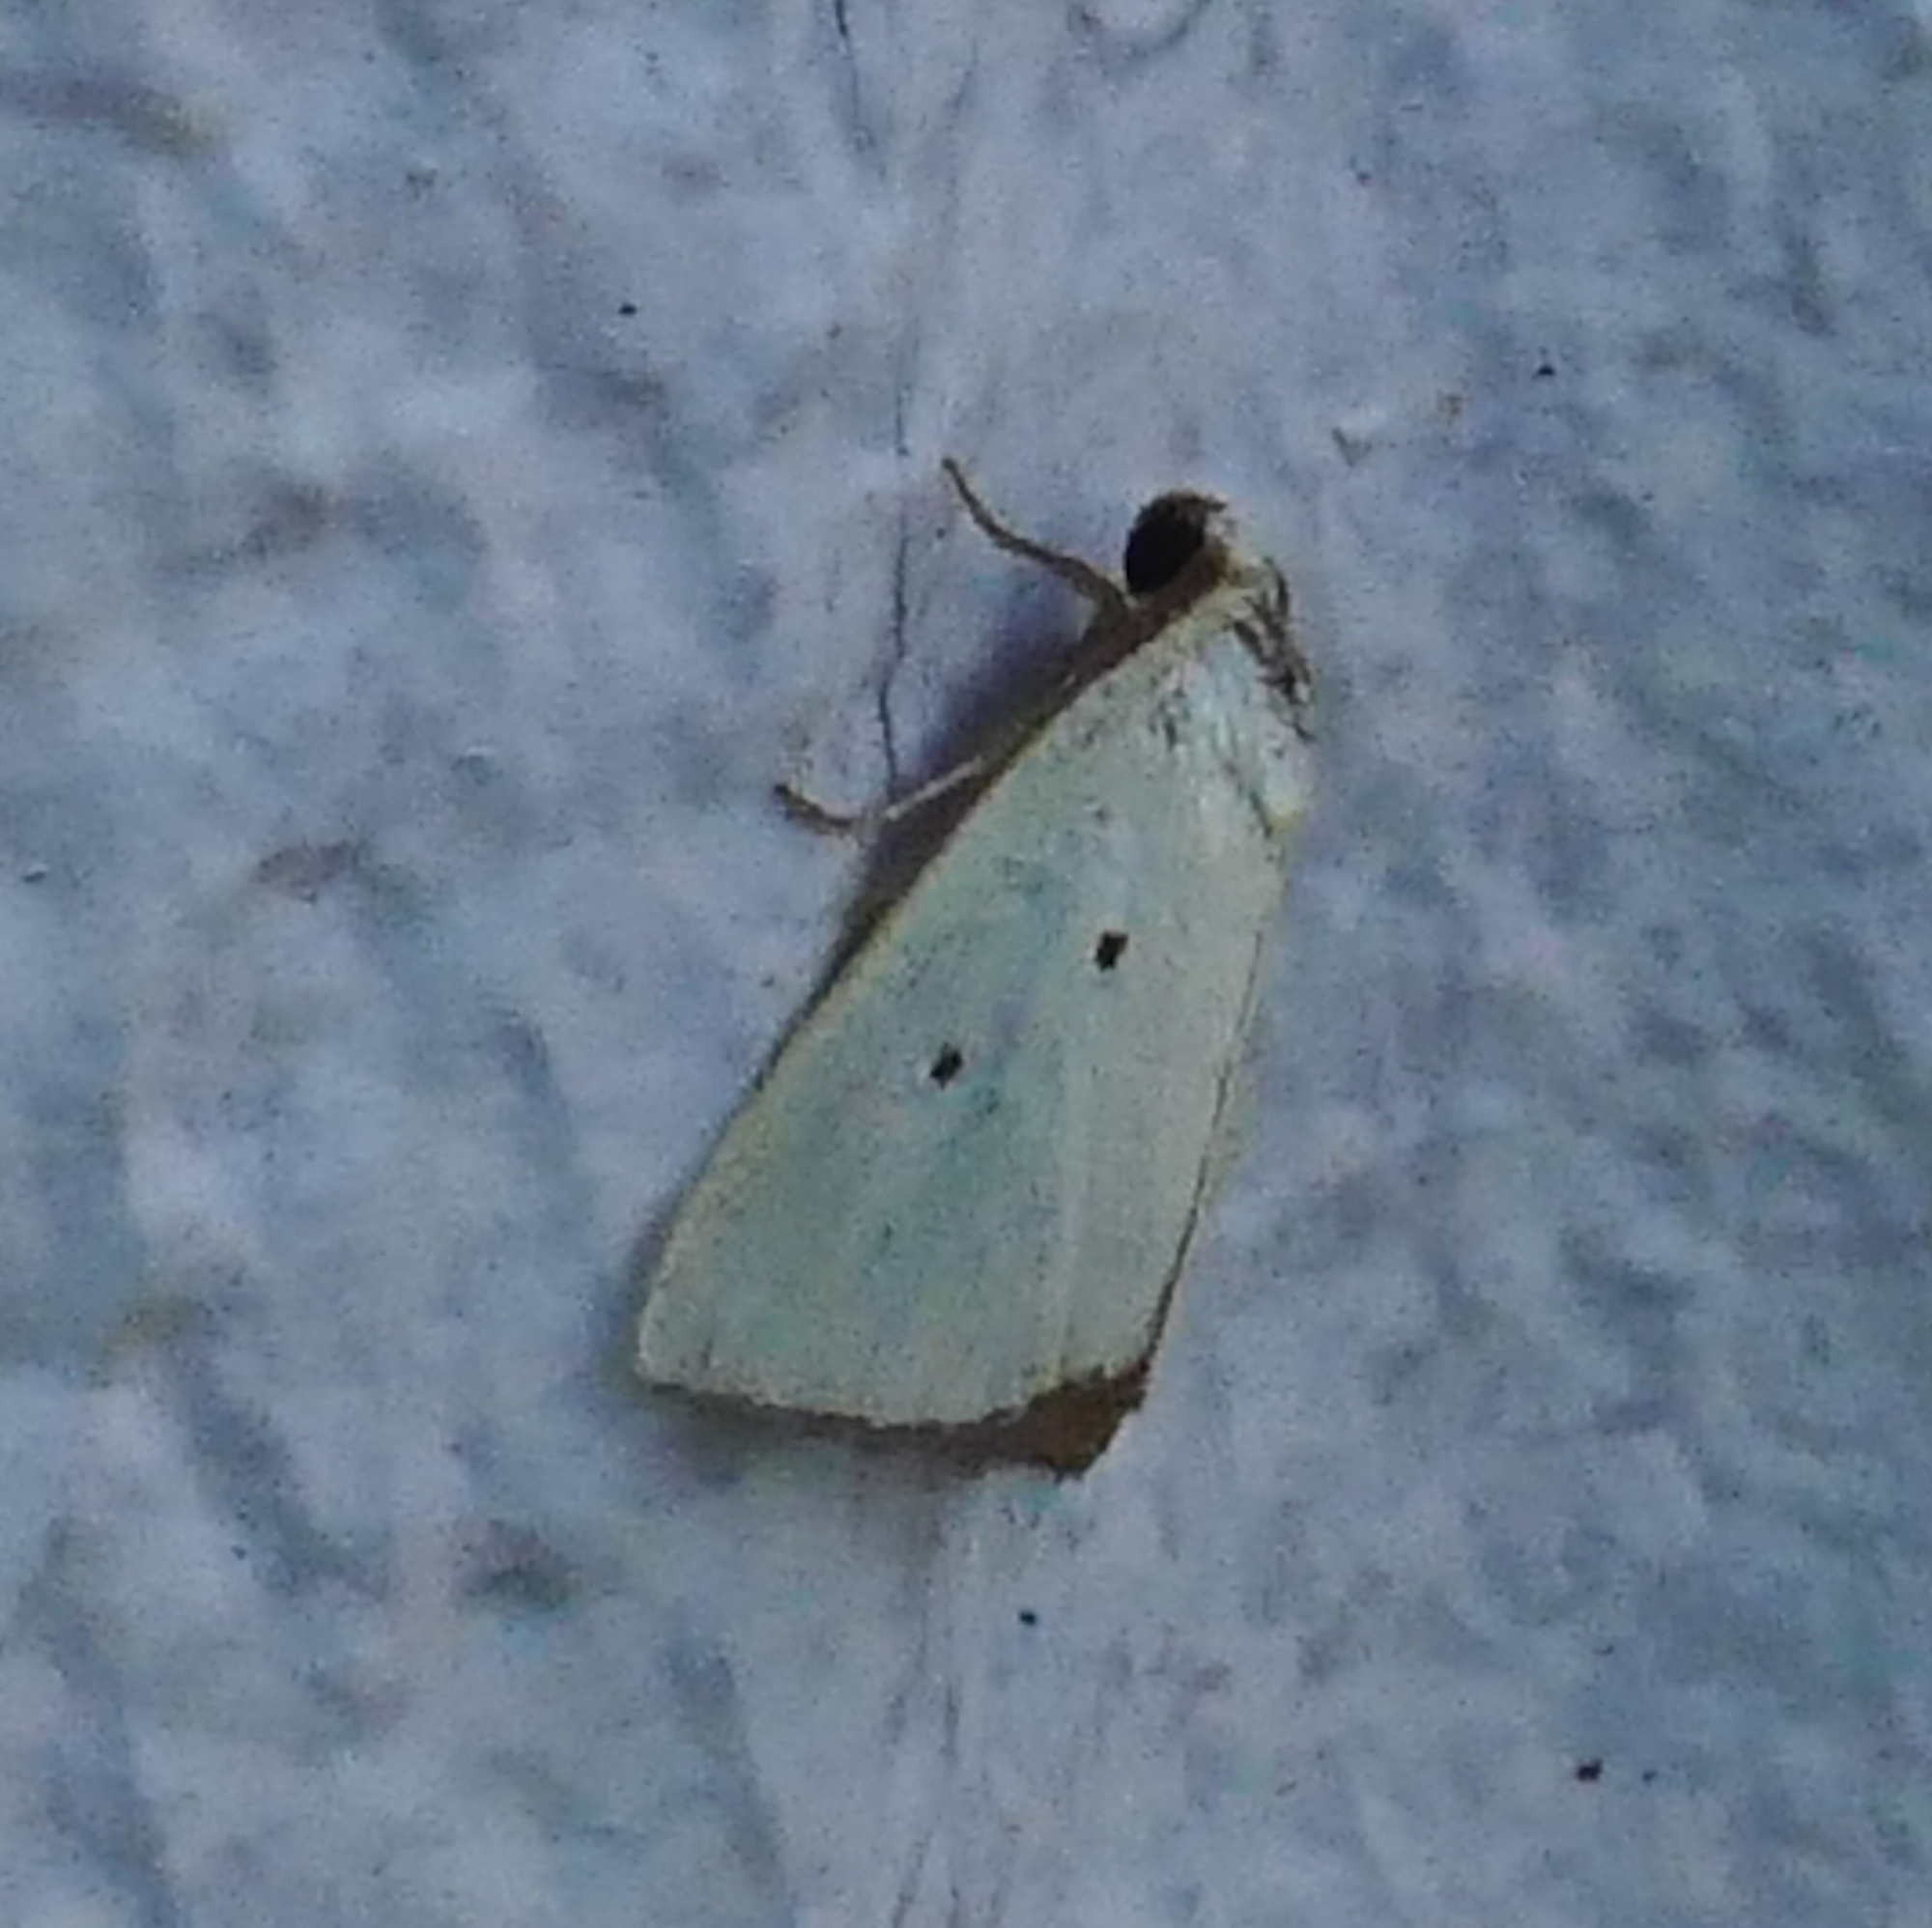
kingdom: Animalia
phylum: Arthropoda
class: Insecta
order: Lepidoptera
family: Noctuidae
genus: Marimatha
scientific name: Marimatha nigrofimbria
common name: Black-bordered lemon moth
